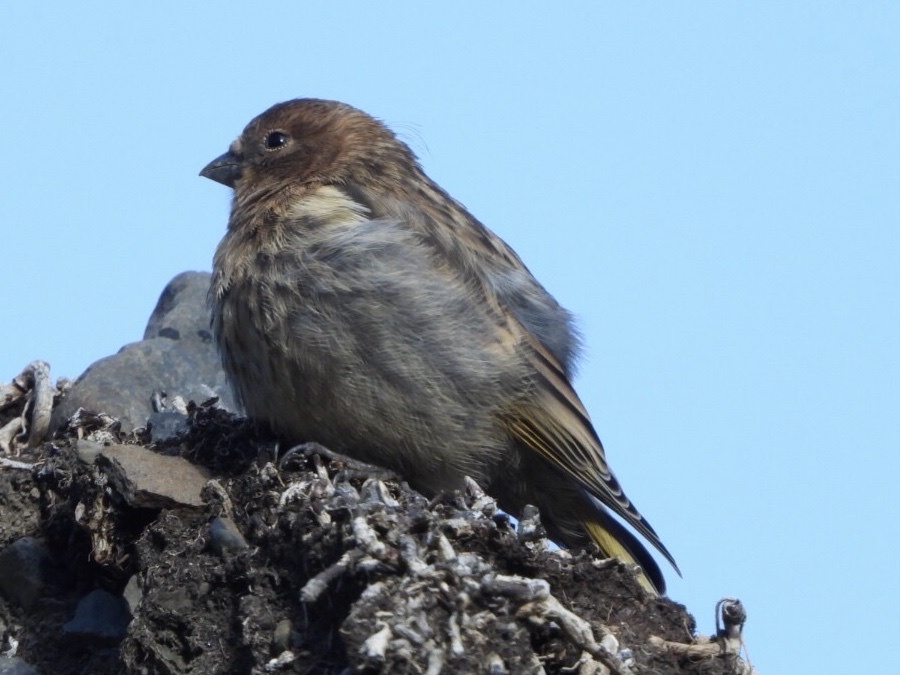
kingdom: Animalia
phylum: Chordata
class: Aves
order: Passeriformes
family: Fringillidae
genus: Serinus
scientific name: Serinus pusillus
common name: Red-fronted serin
